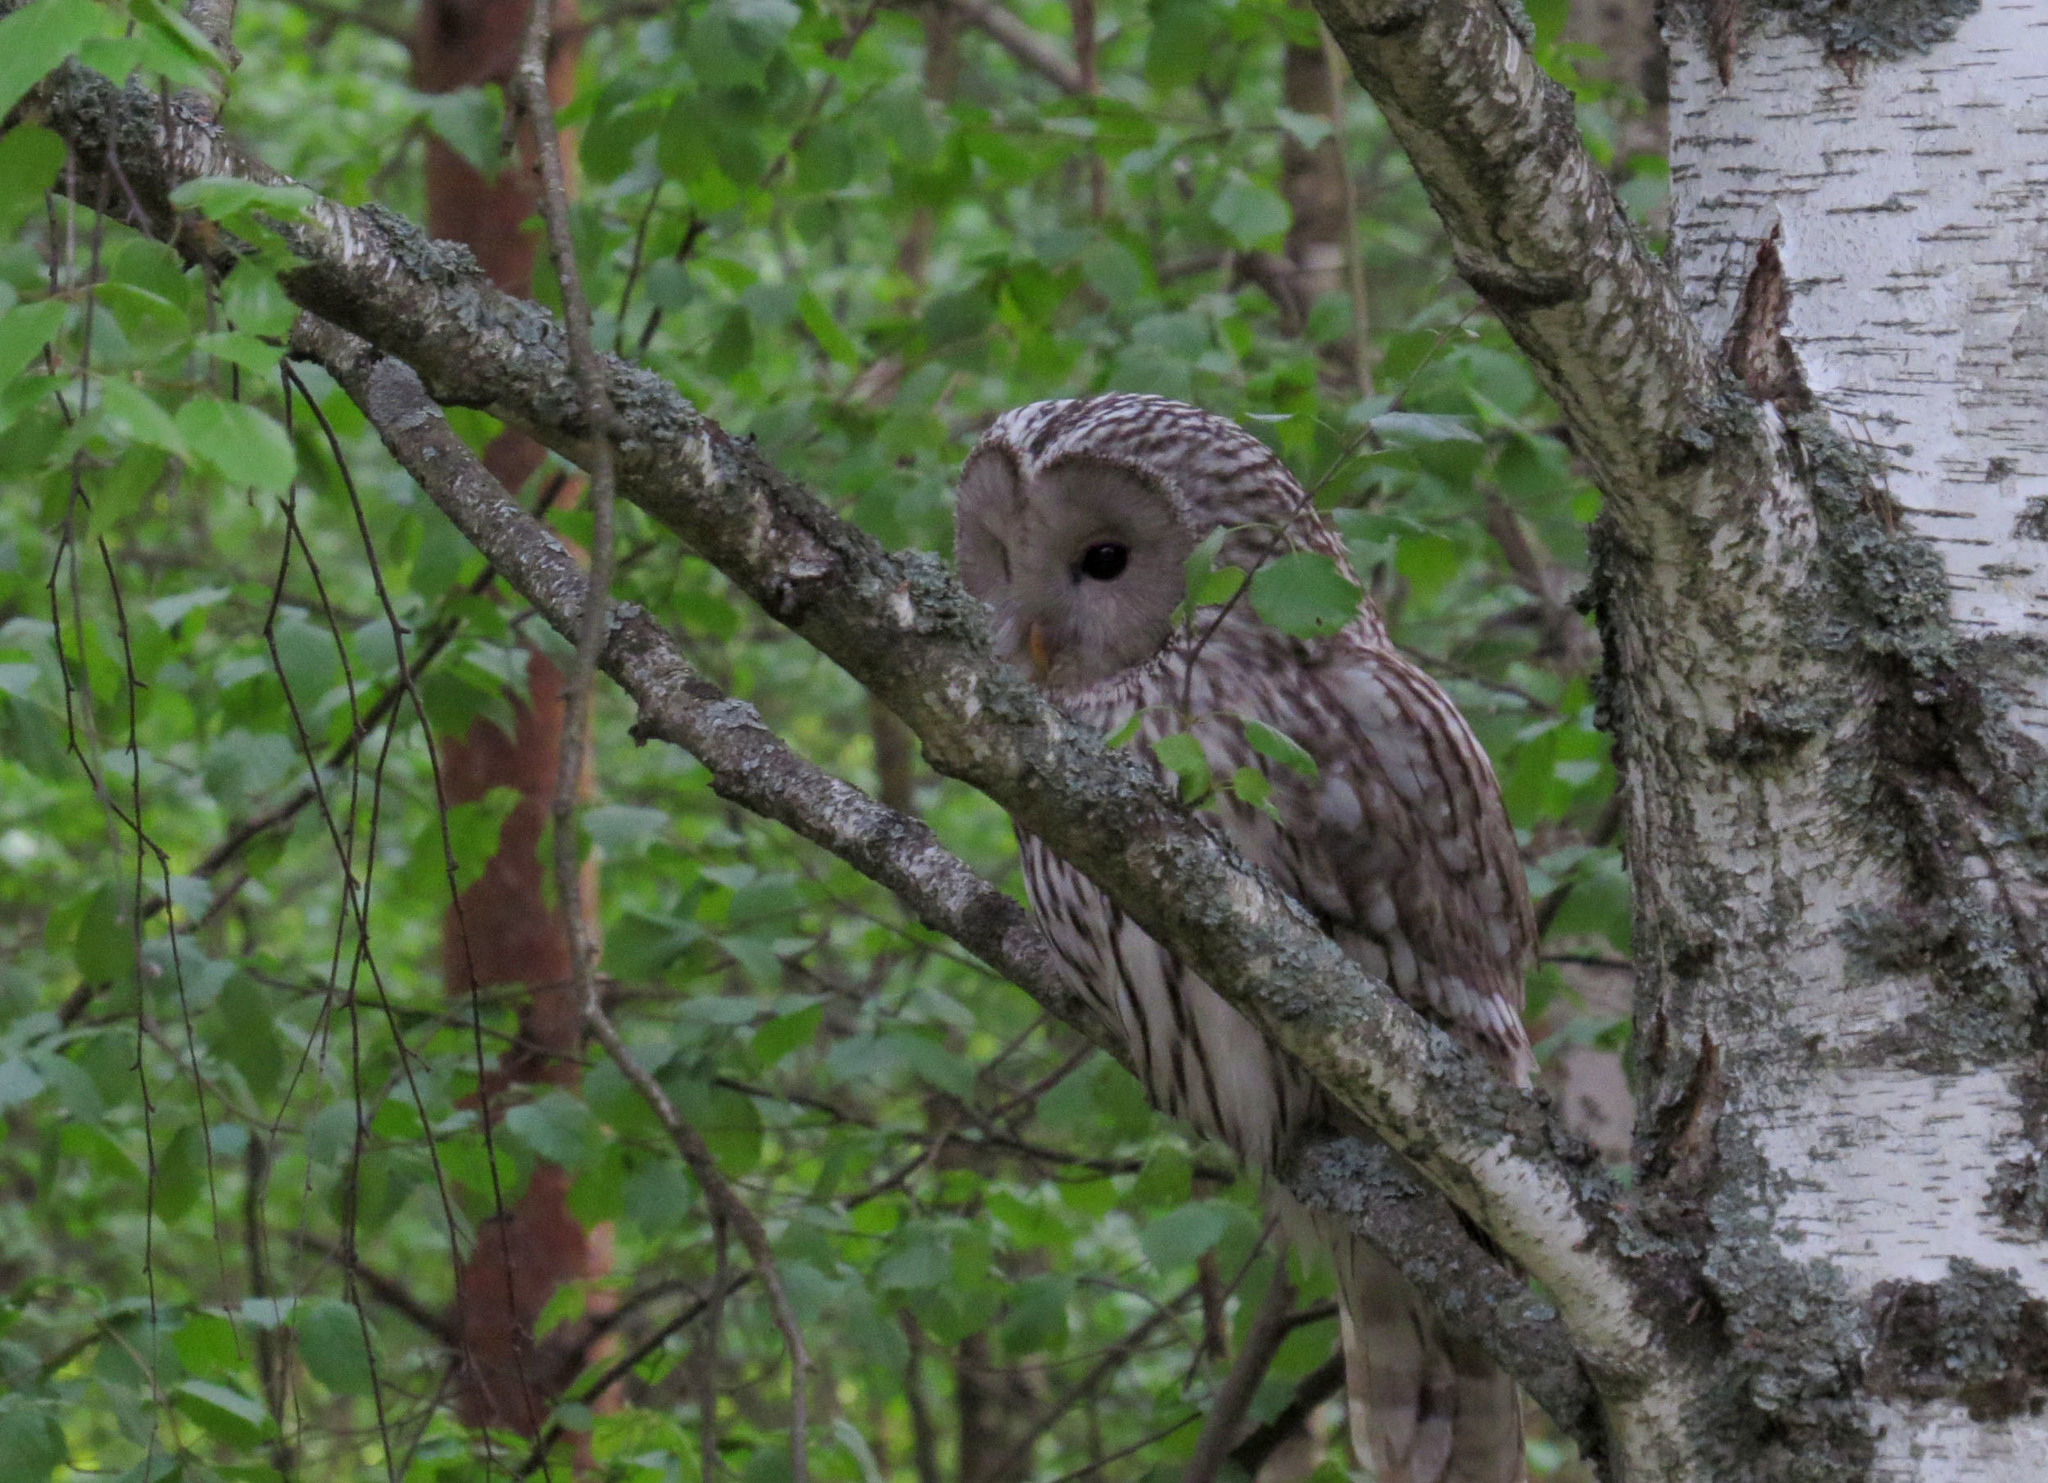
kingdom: Animalia
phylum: Chordata
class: Aves
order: Strigiformes
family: Strigidae
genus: Strix
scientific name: Strix uralensis
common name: Ural owl
